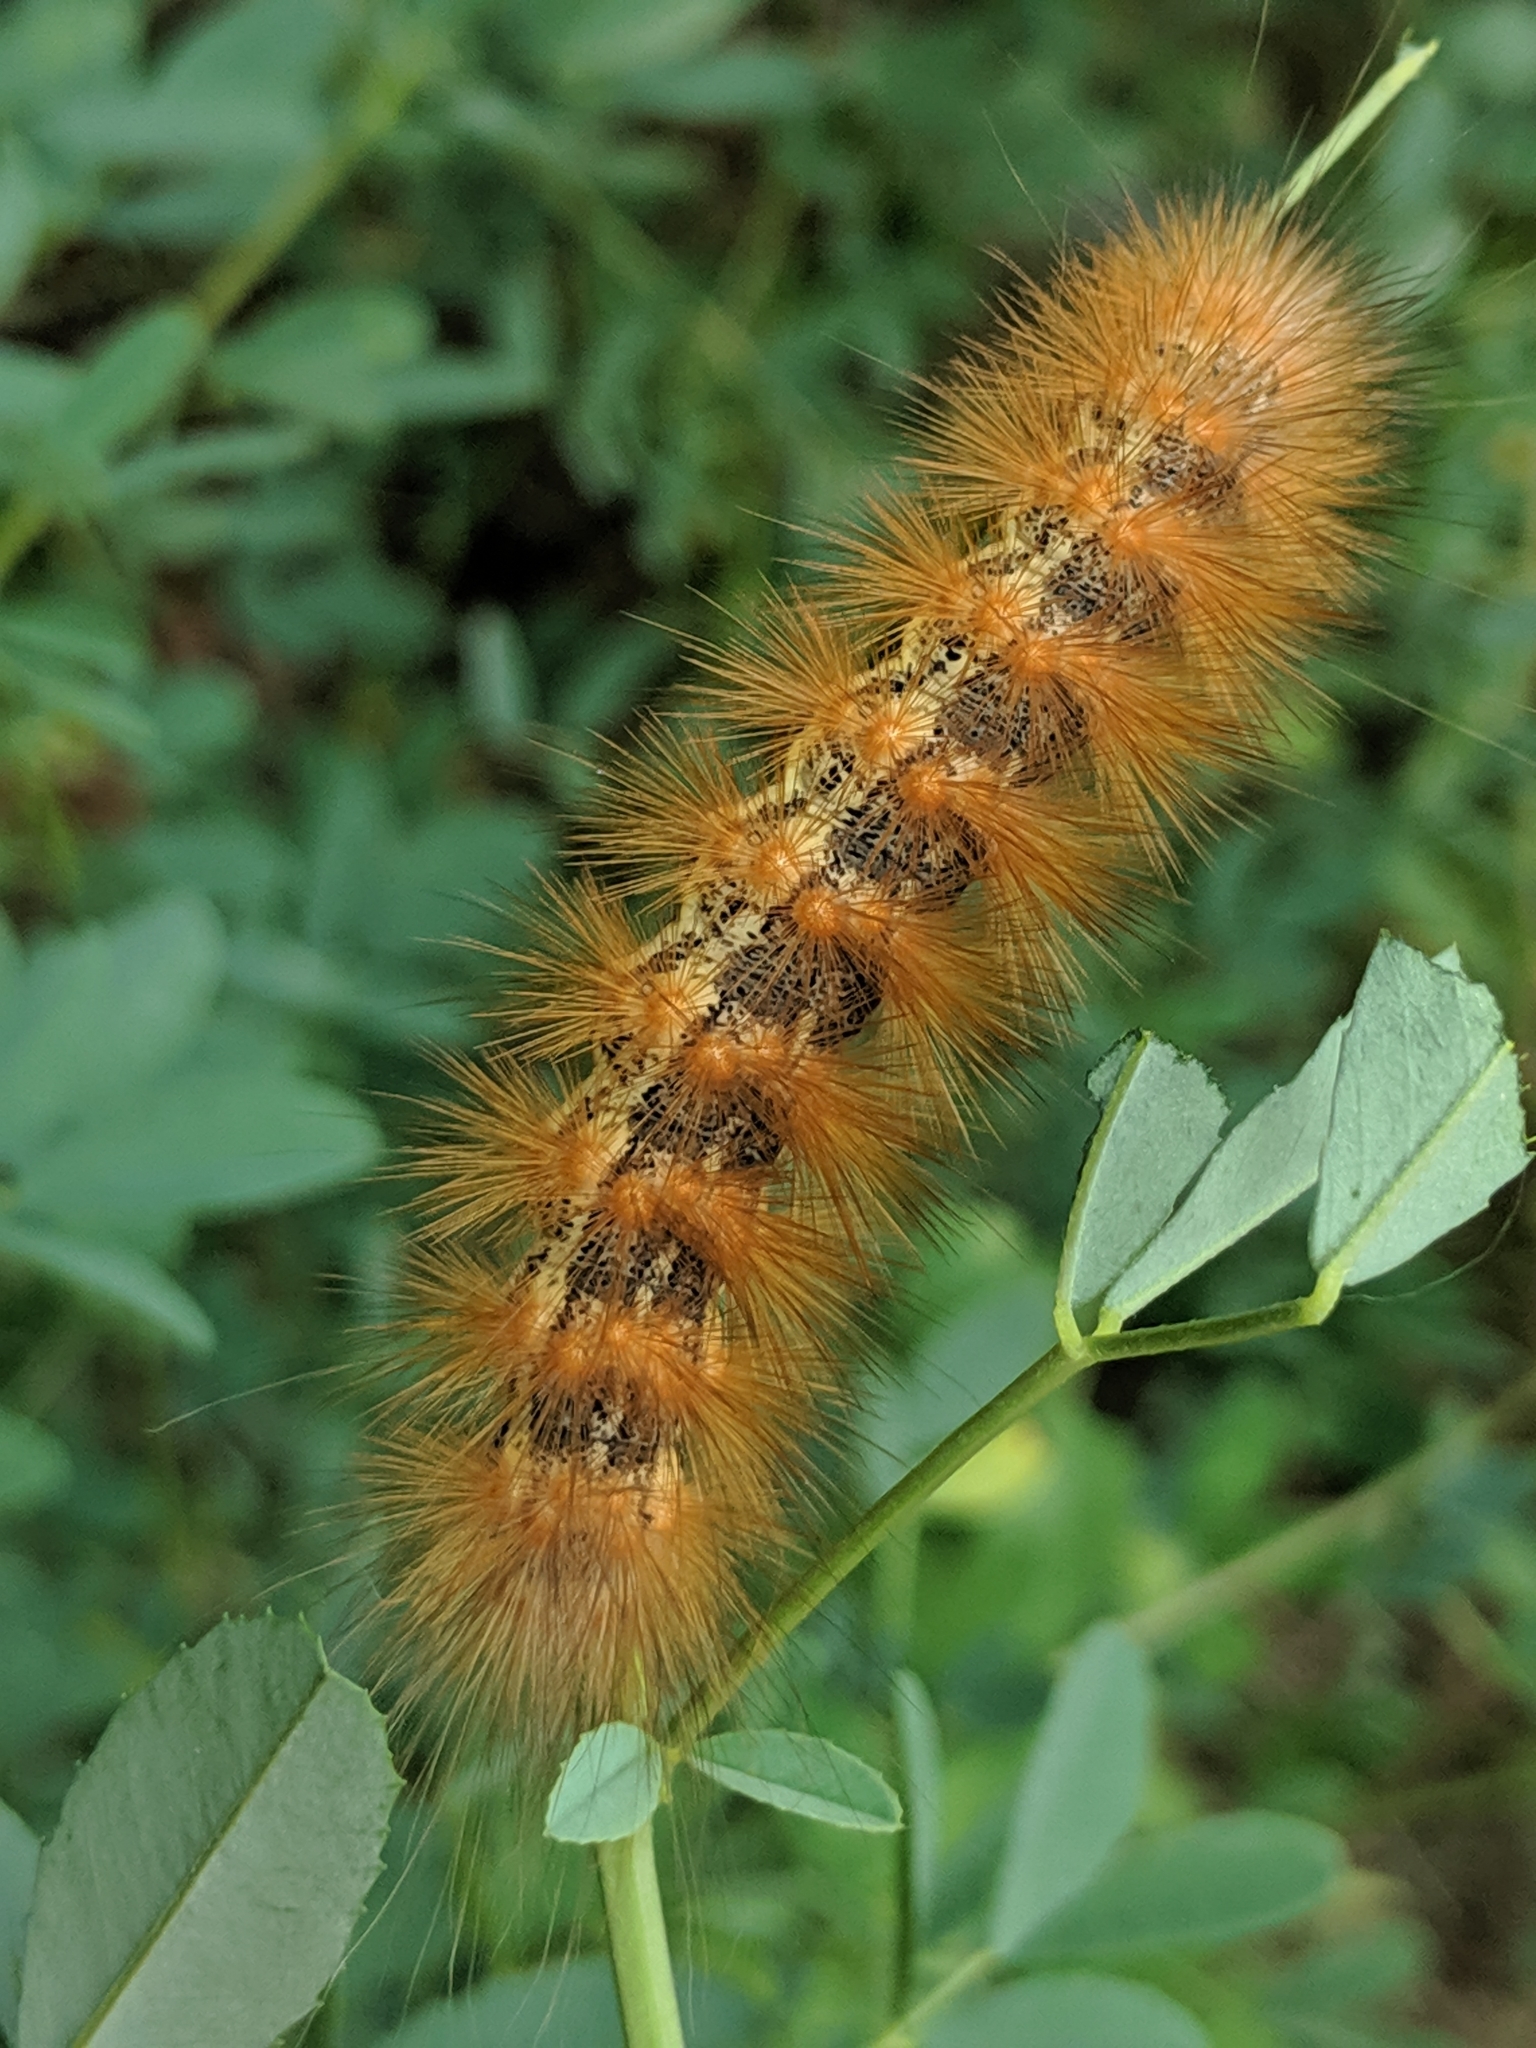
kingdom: Animalia
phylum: Arthropoda
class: Insecta
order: Lepidoptera
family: Erebidae
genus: Estigmene
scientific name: Estigmene acrea
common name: Salt marsh moth
